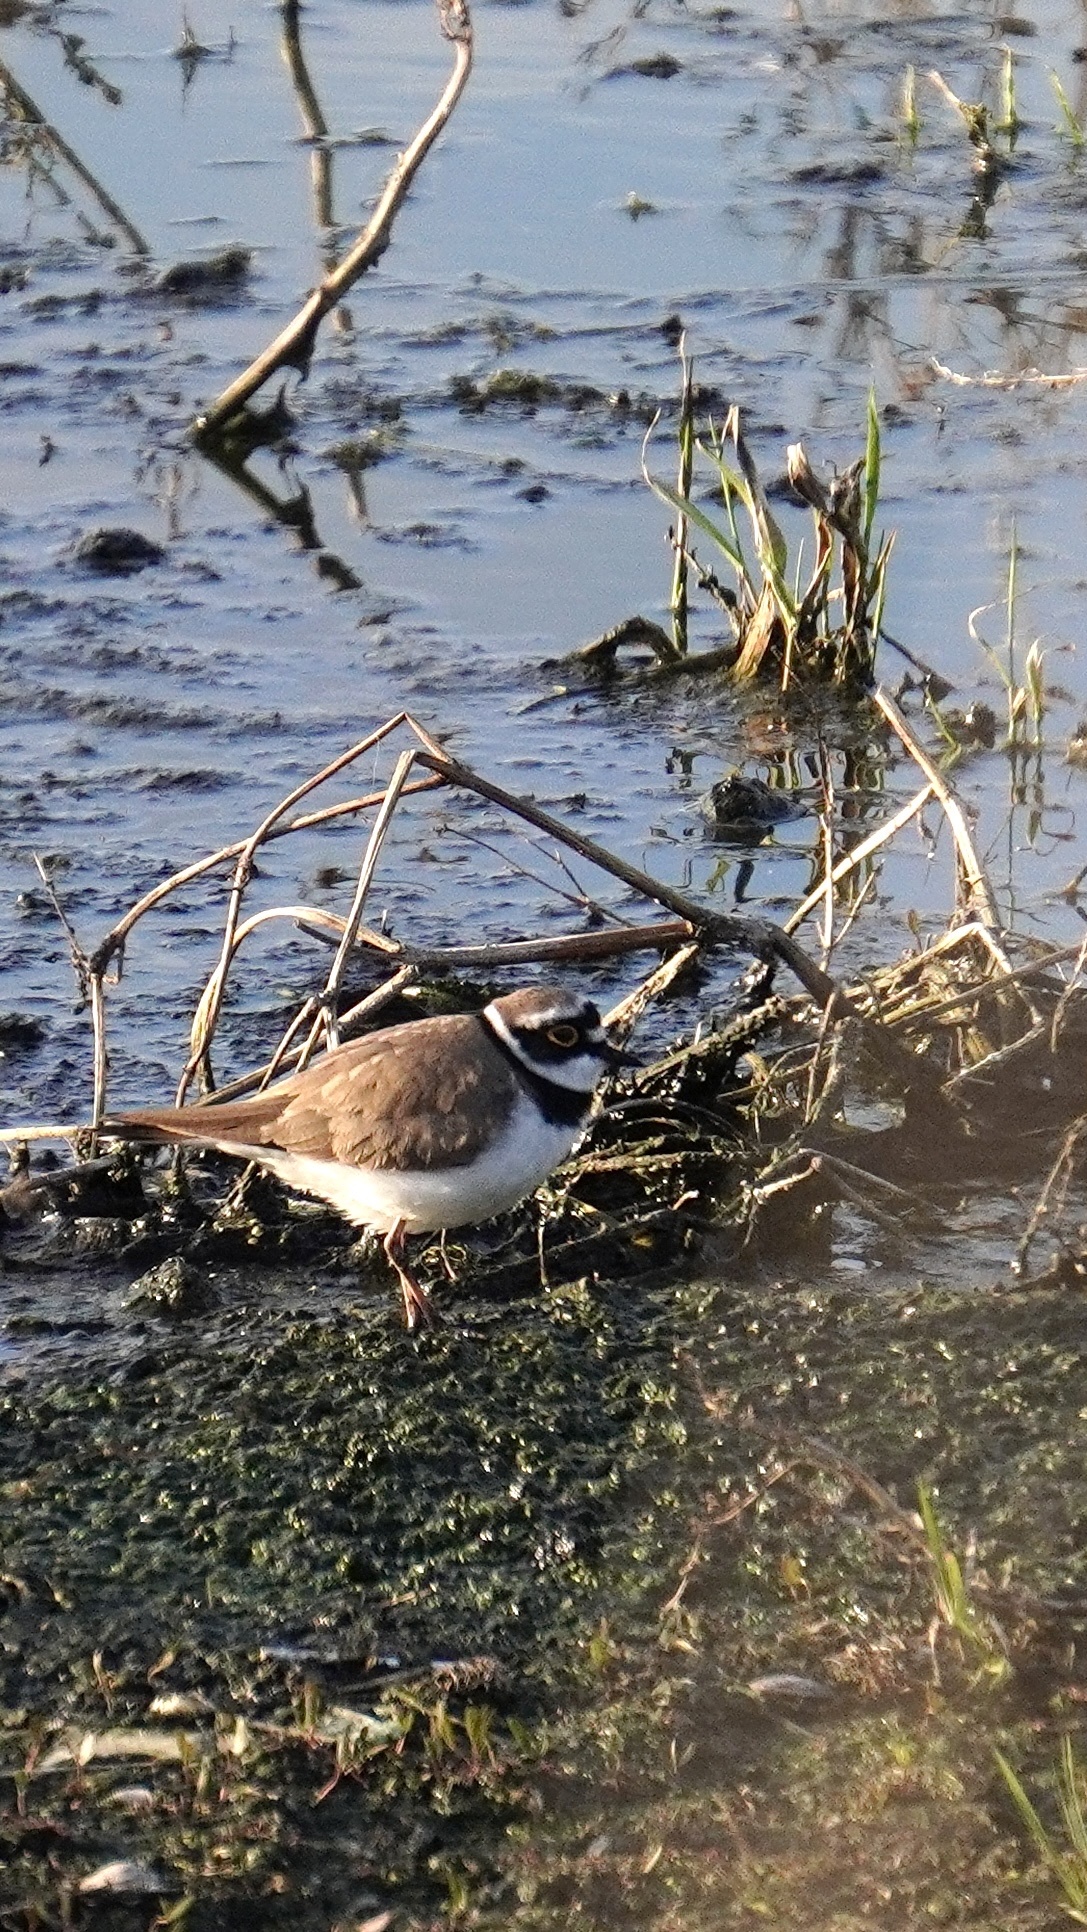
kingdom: Animalia
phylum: Chordata
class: Aves
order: Charadriiformes
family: Charadriidae
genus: Charadrius
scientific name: Charadrius dubius
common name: Little ringed plover
